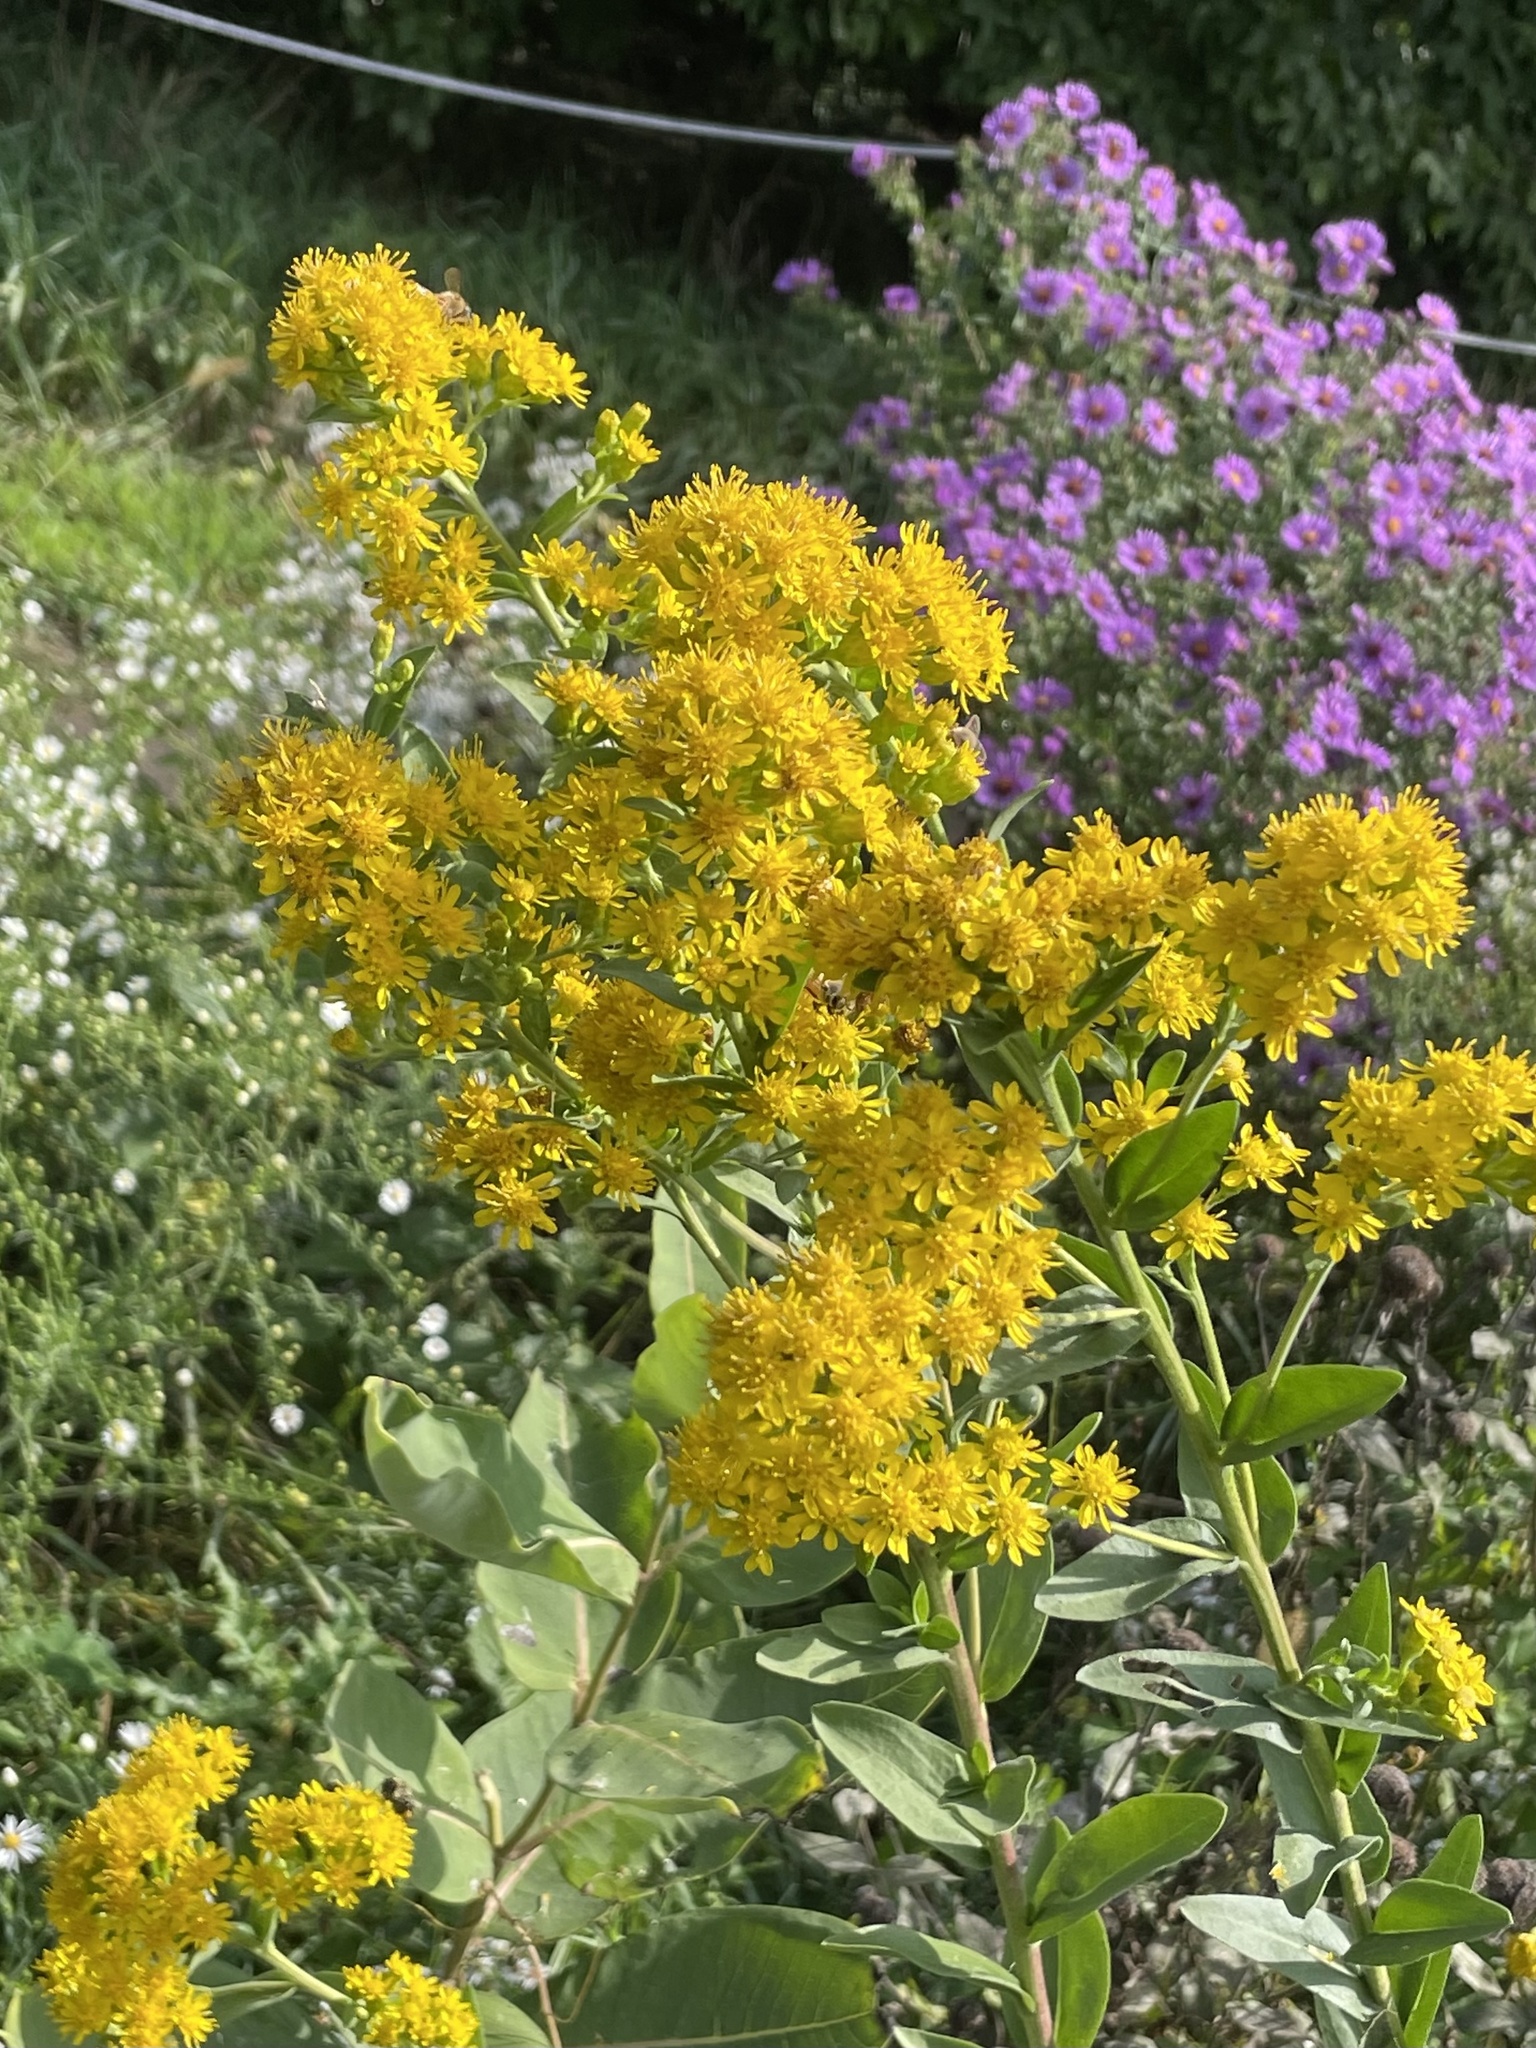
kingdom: Plantae
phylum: Tracheophyta
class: Magnoliopsida
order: Asterales
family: Asteraceae
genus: Solidago
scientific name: Solidago rigida
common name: Rigid goldenrod
